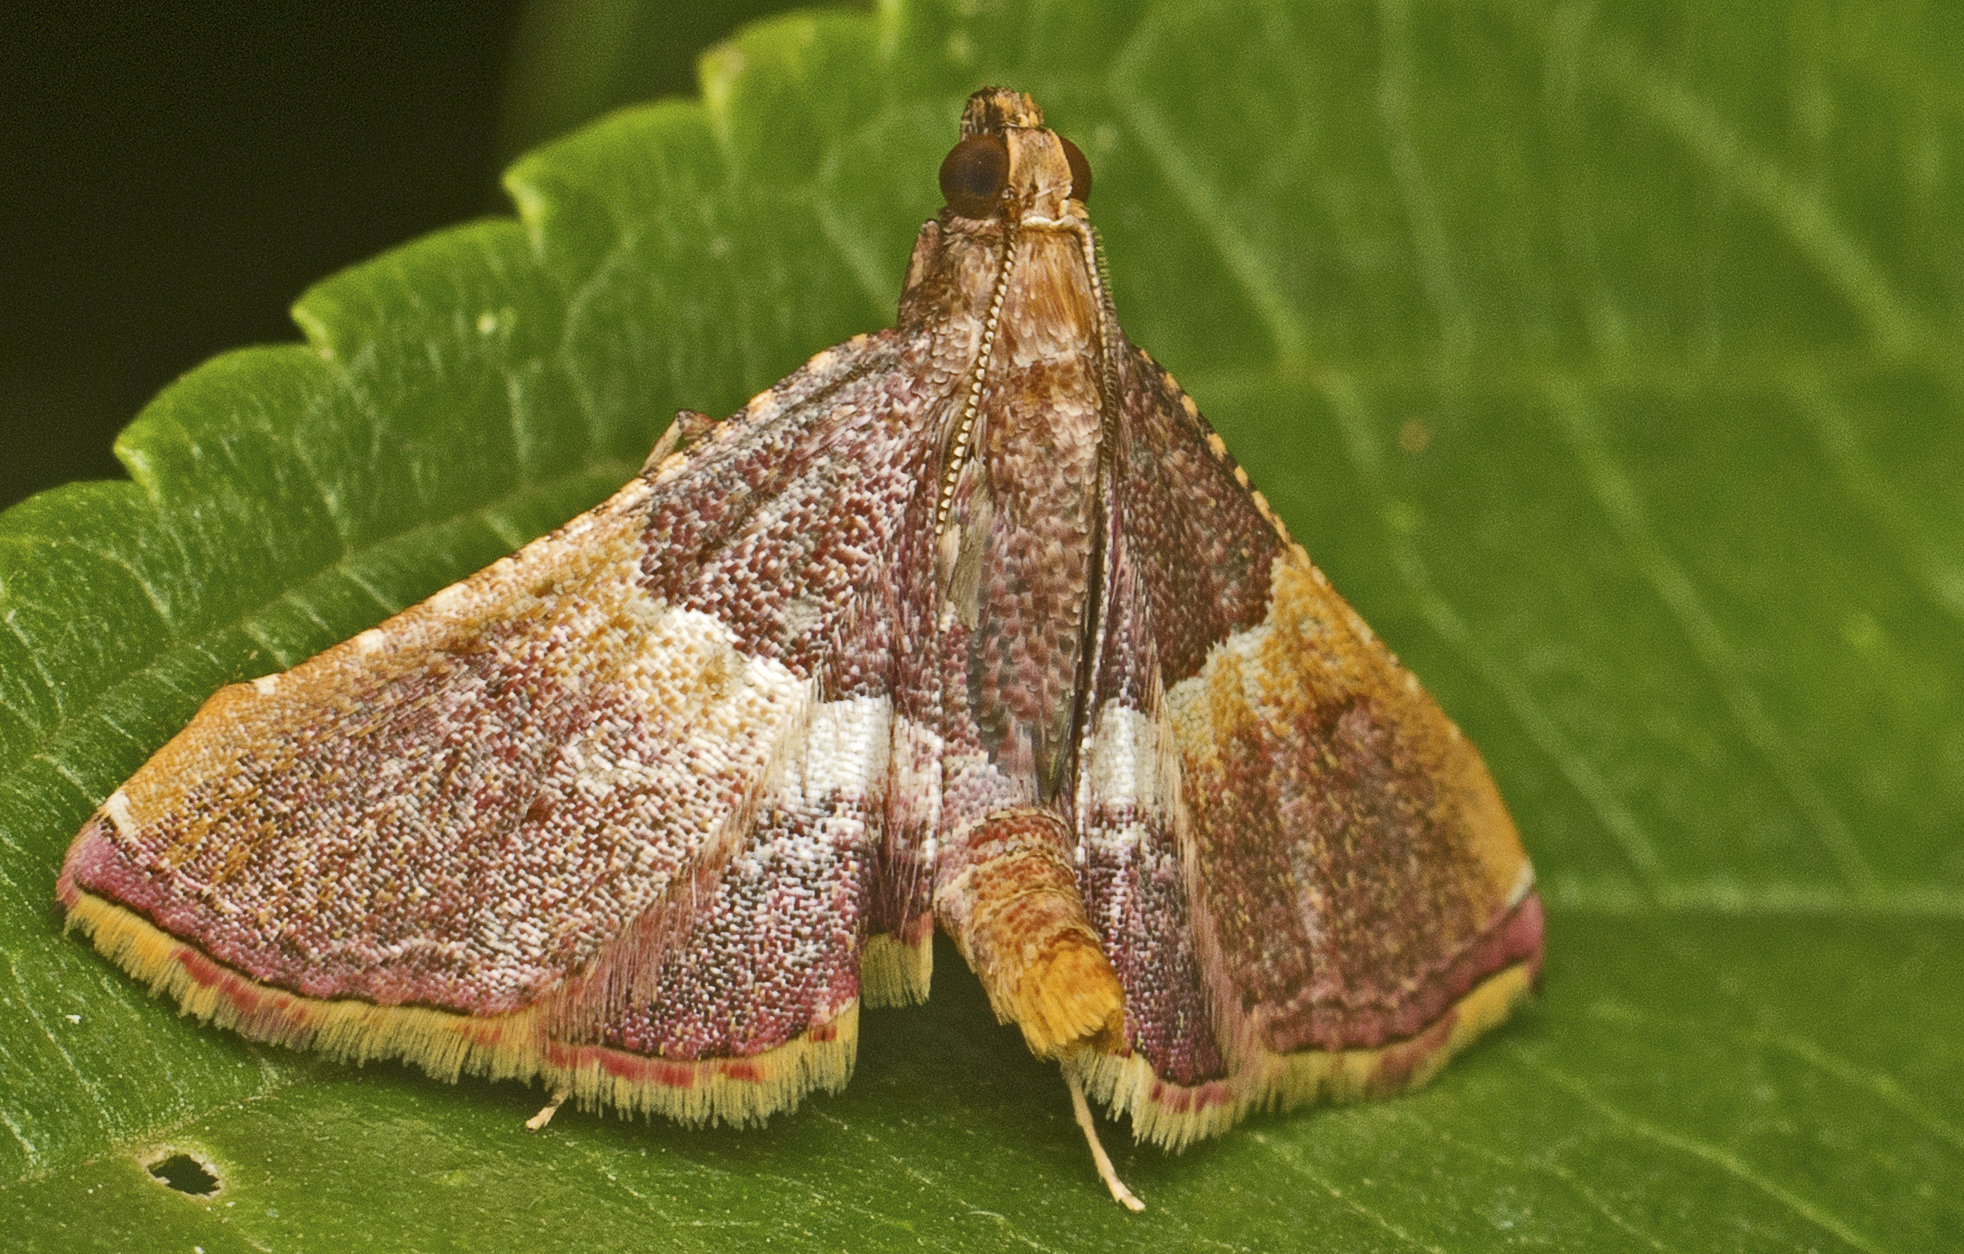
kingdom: Animalia
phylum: Arthropoda
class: Insecta
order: Lepidoptera
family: Pyralidae
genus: Endotricha
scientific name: Endotricha mesenterialis
